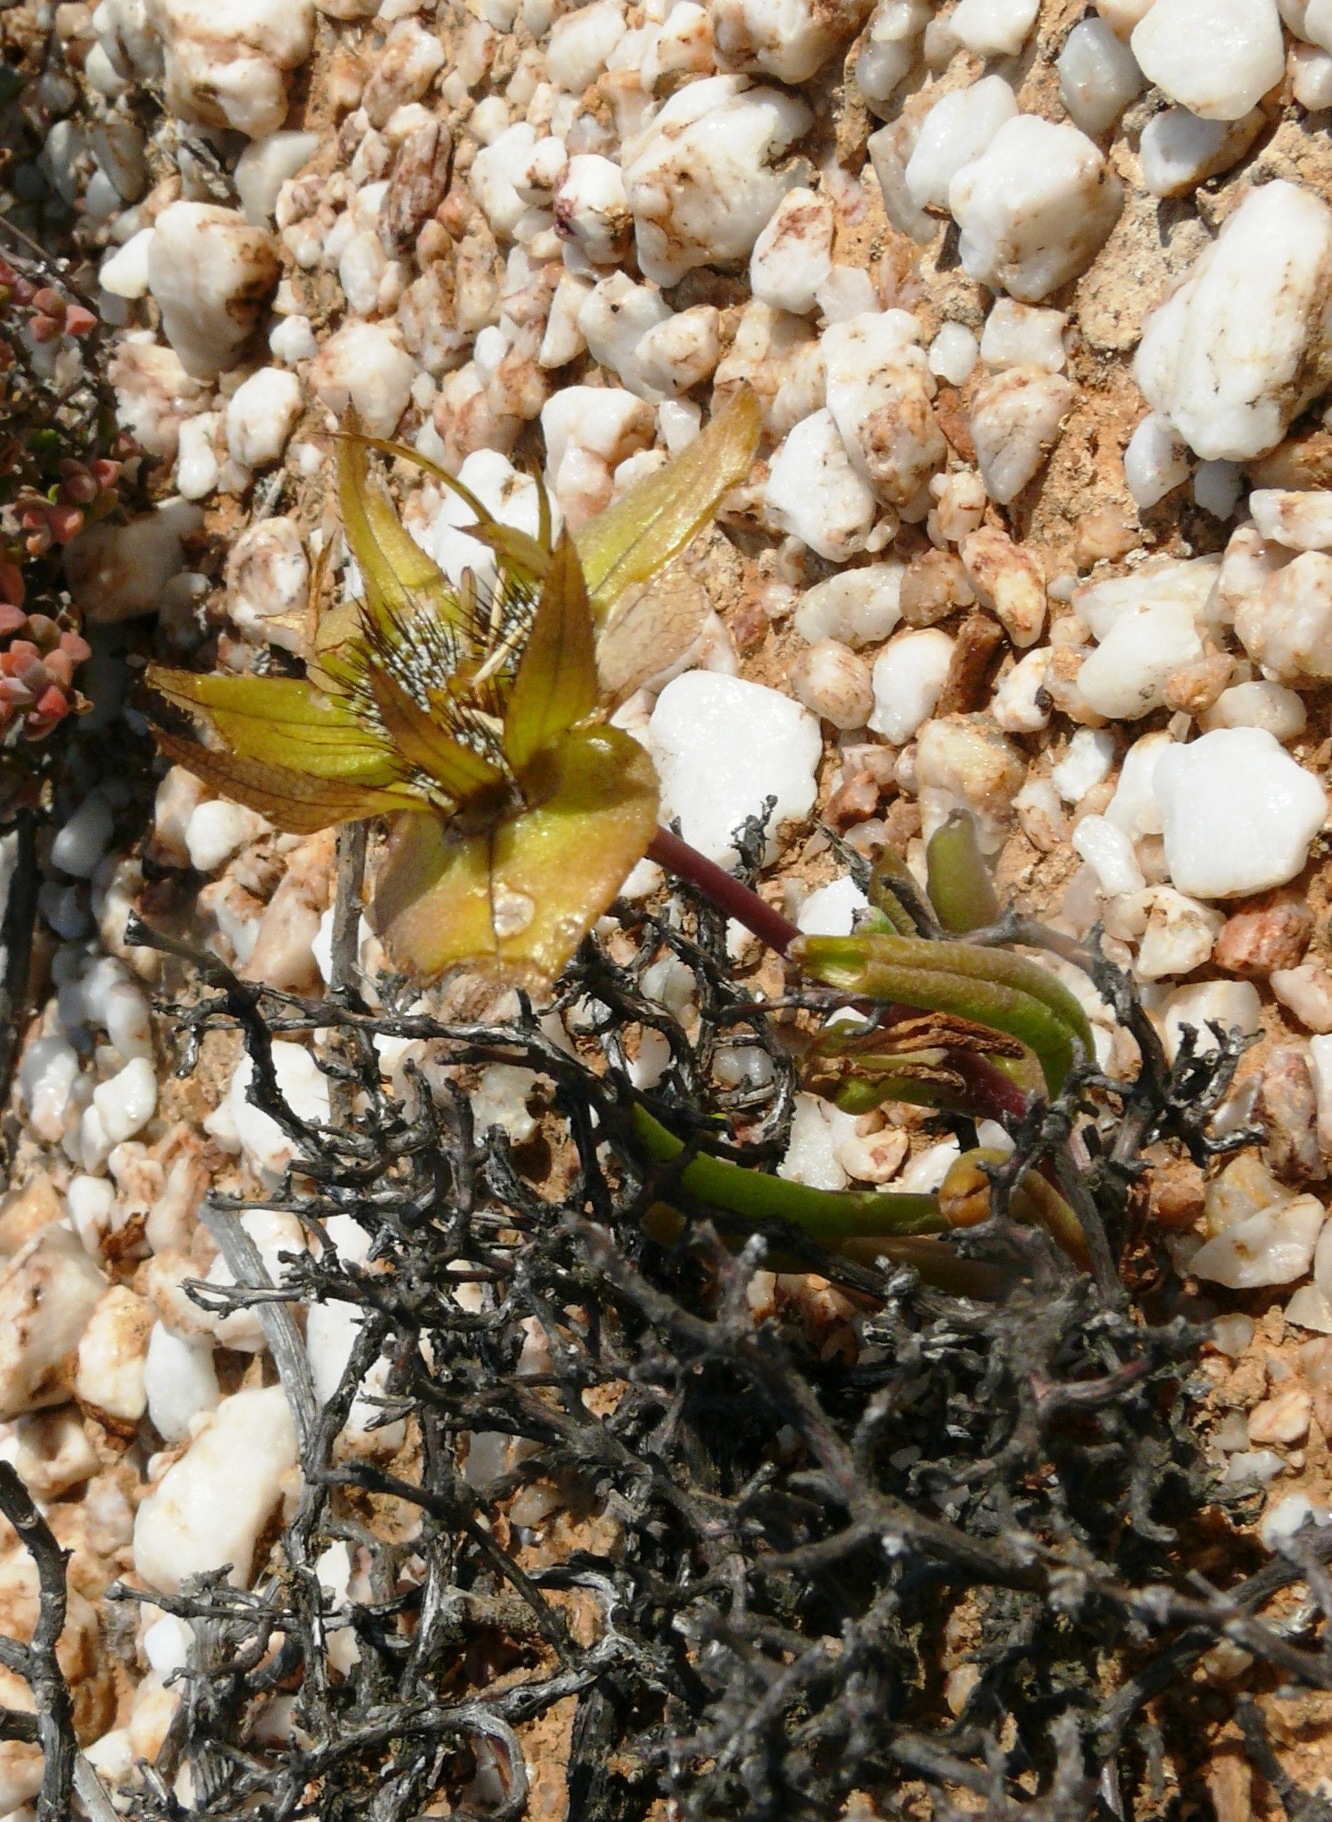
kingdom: Plantae
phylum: Tracheophyta
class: Magnoliopsida
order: Asterales
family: Asteraceae
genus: Didelta
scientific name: Didelta carnosa
